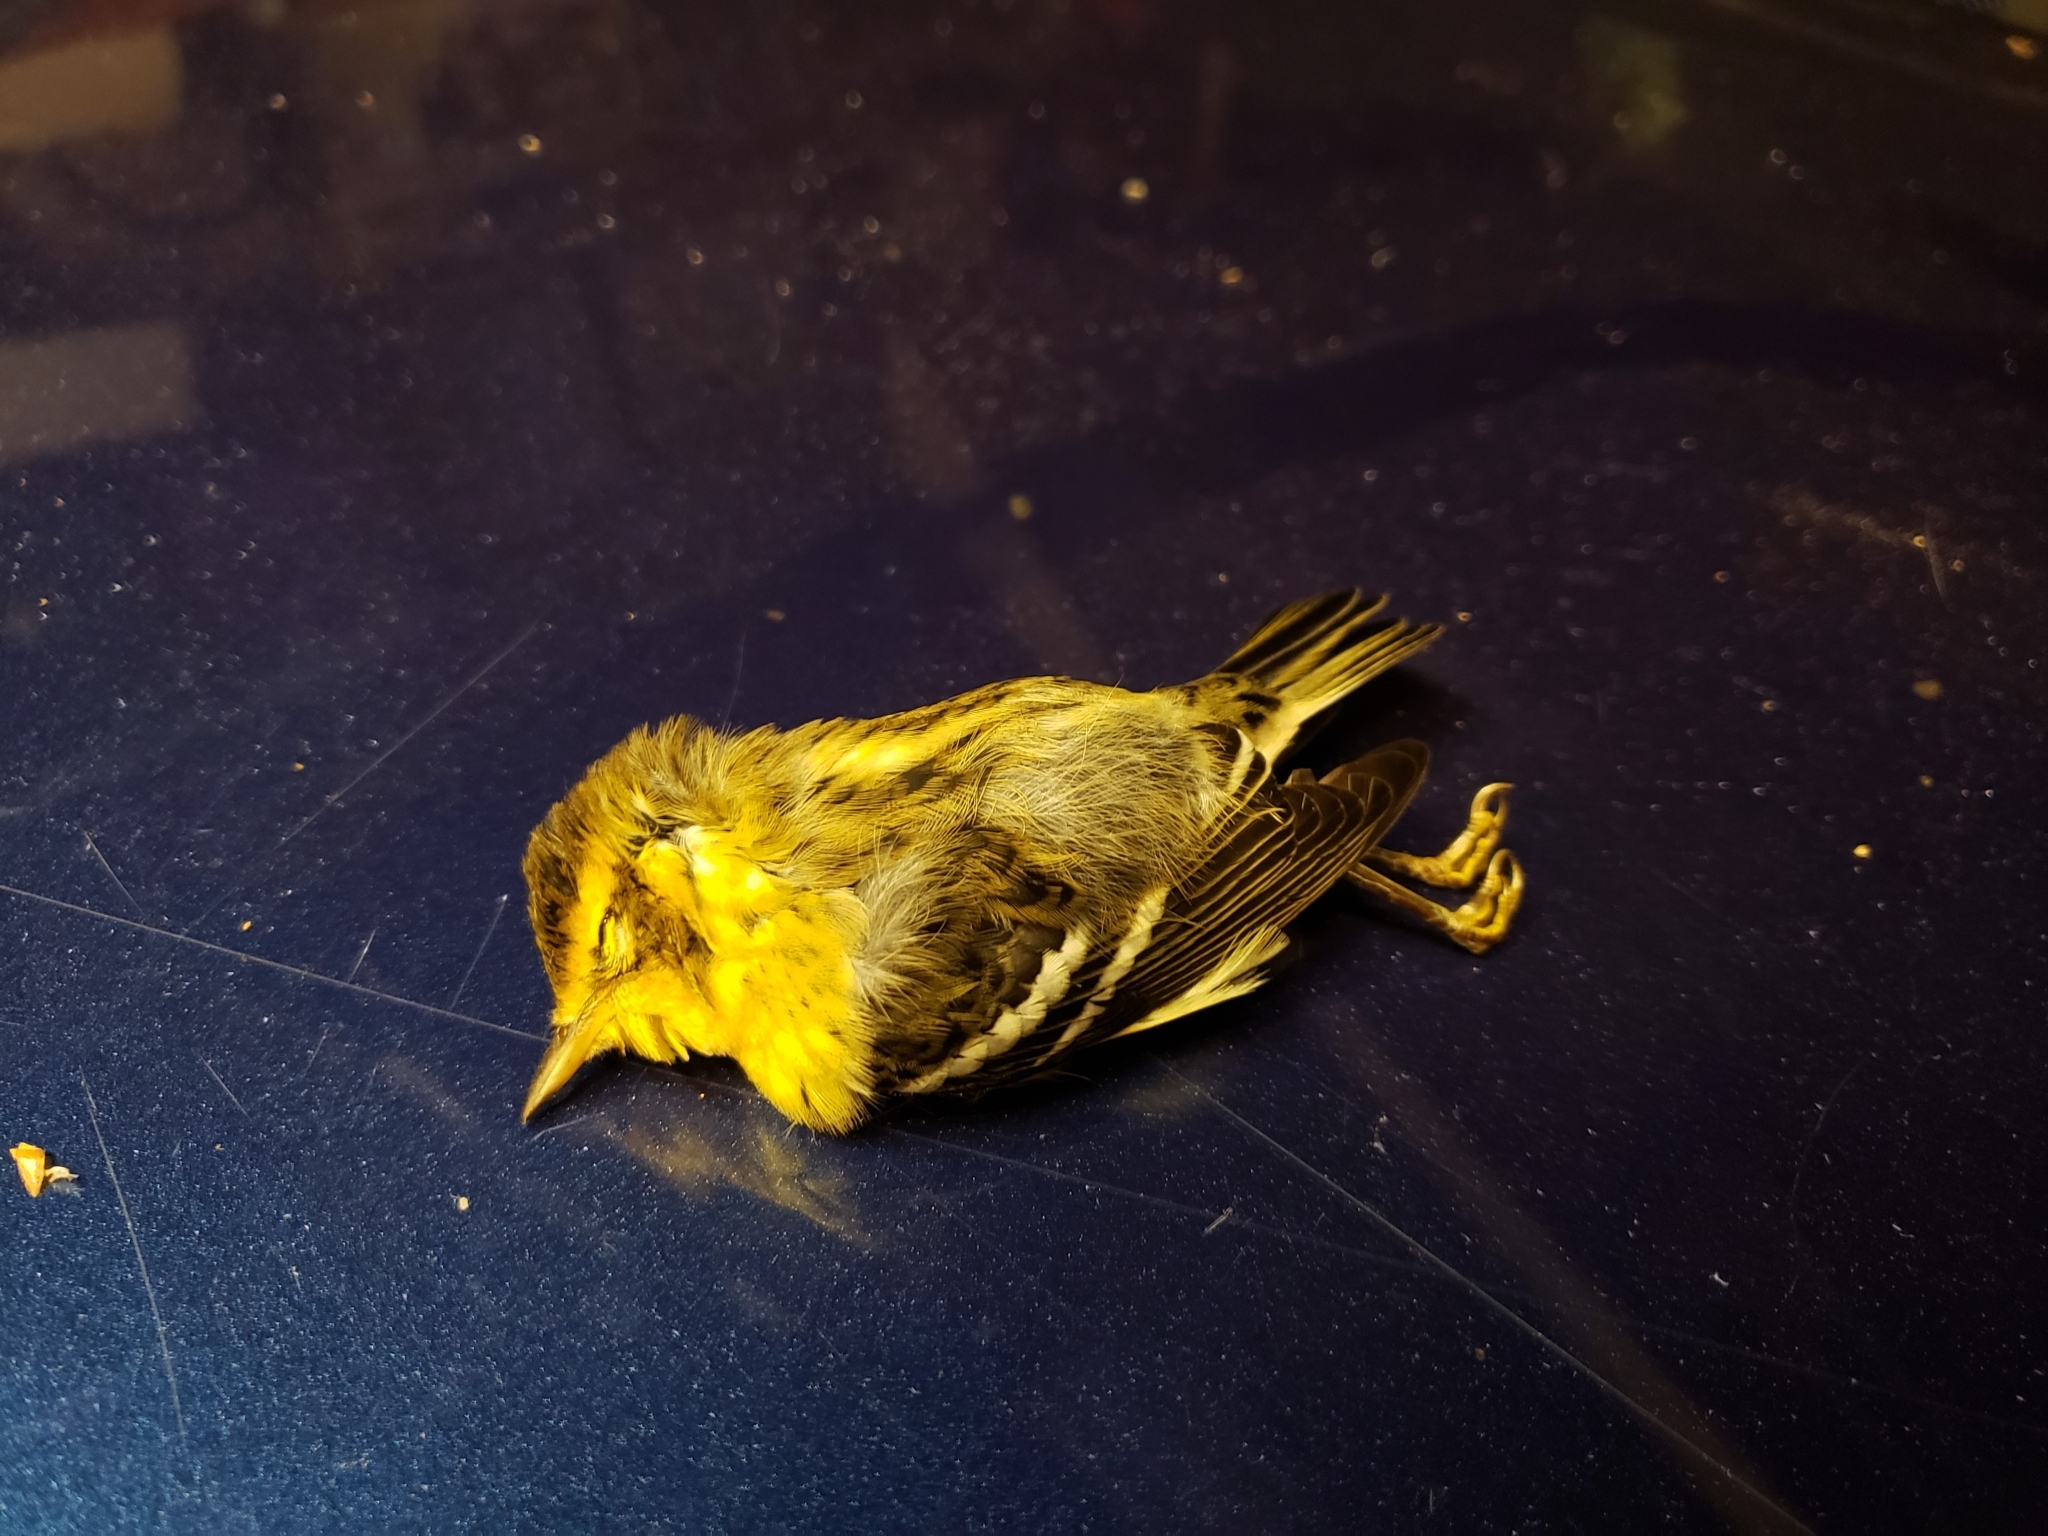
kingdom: Animalia
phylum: Chordata
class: Aves
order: Passeriformes
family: Parulidae
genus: Setophaga
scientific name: Setophaga fusca
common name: Blackburnian warbler
